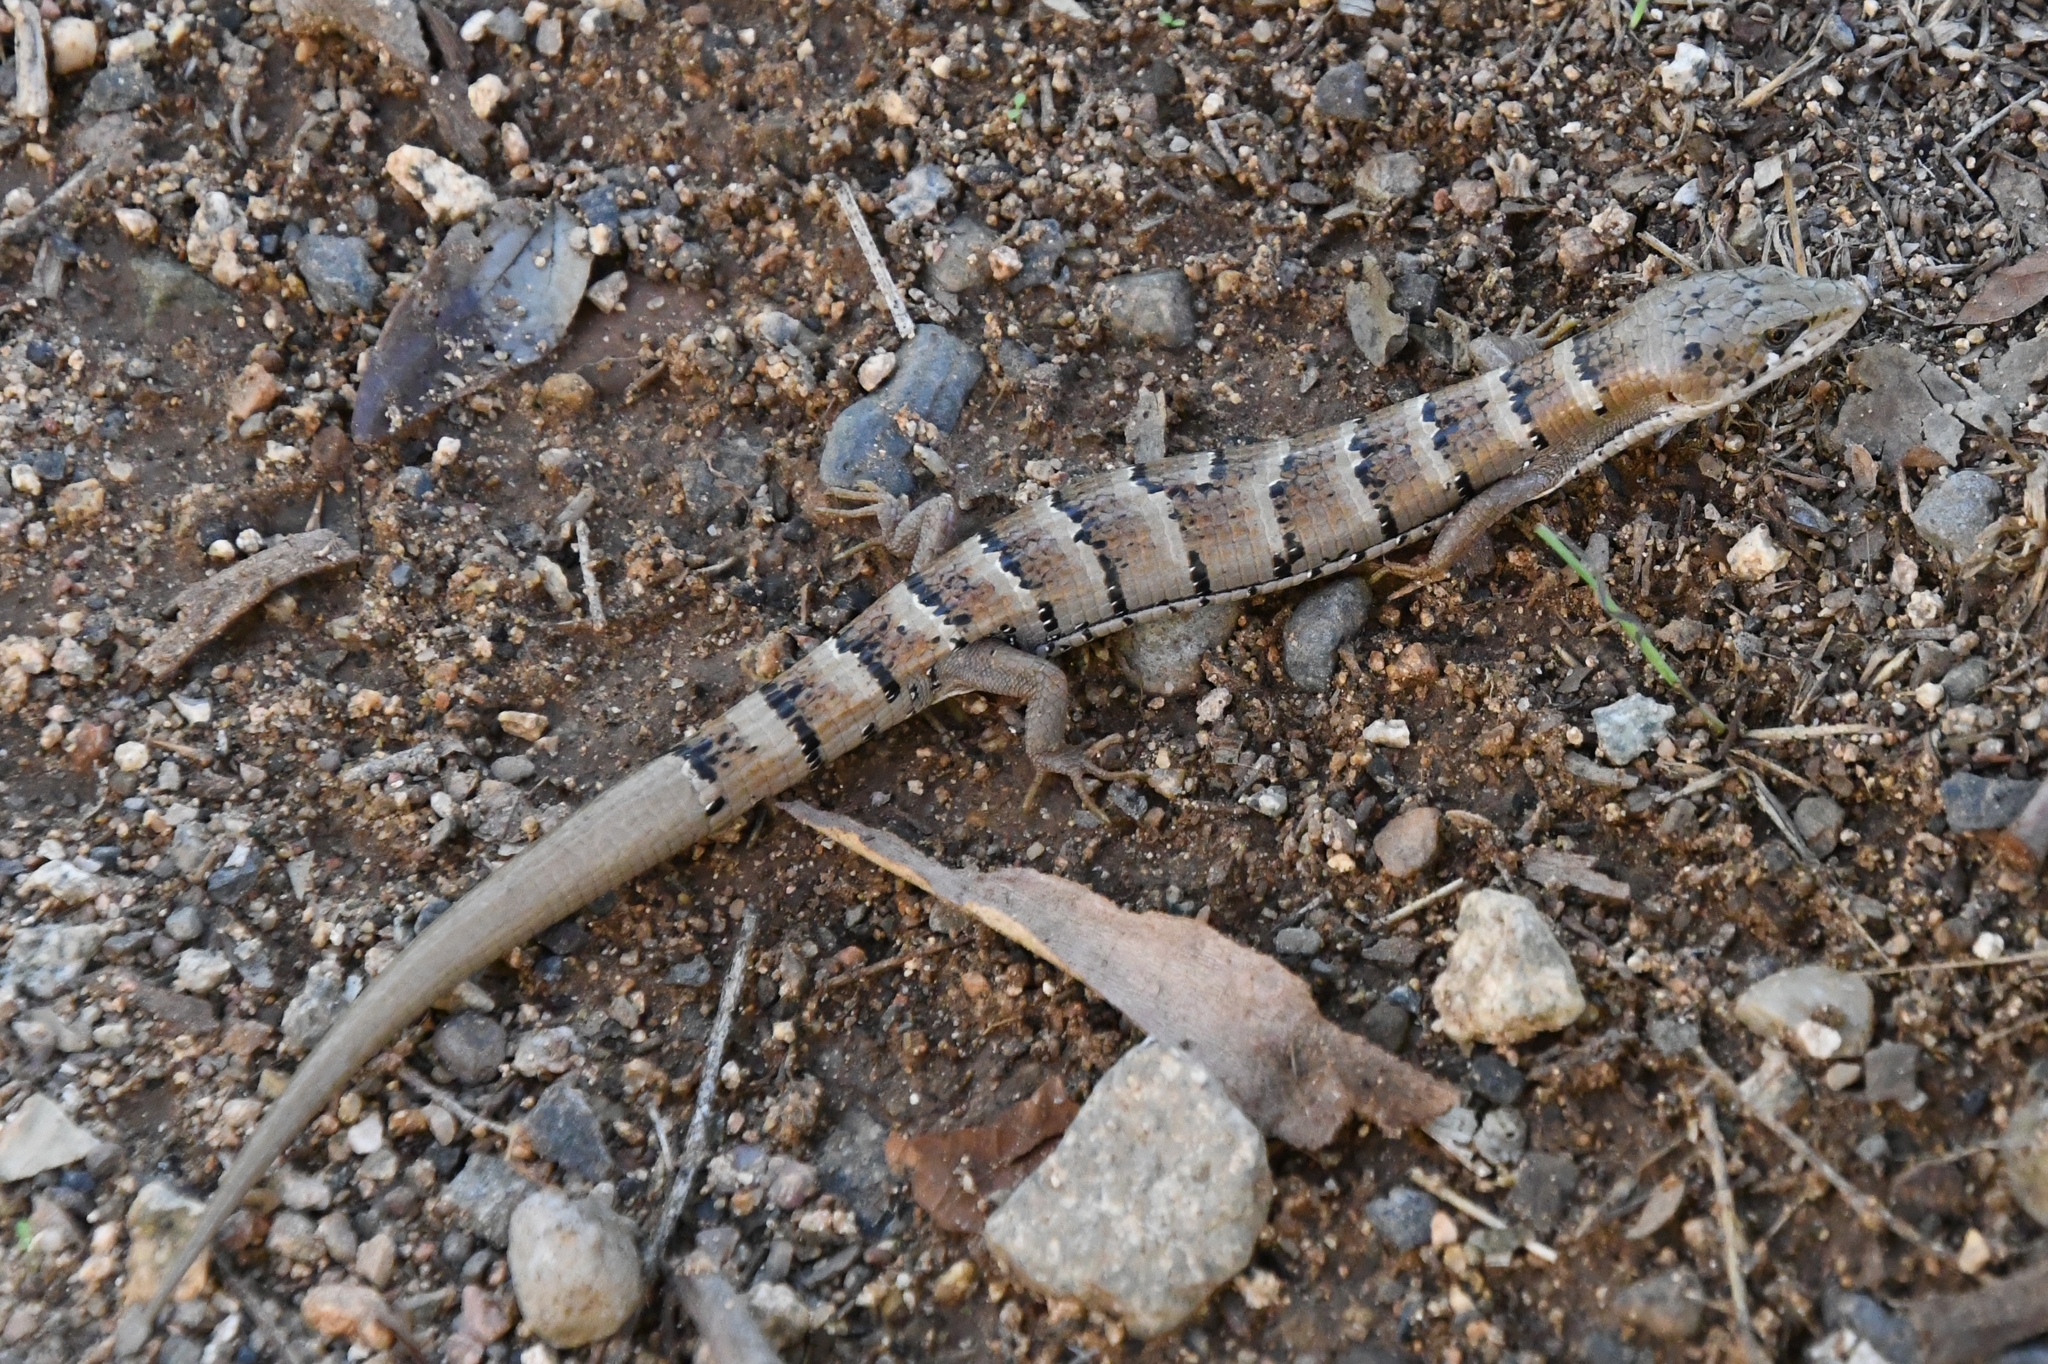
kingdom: Animalia
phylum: Chordata
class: Squamata
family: Anguidae
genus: Elgaria
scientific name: Elgaria kingii
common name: Madrean alligator lizard
